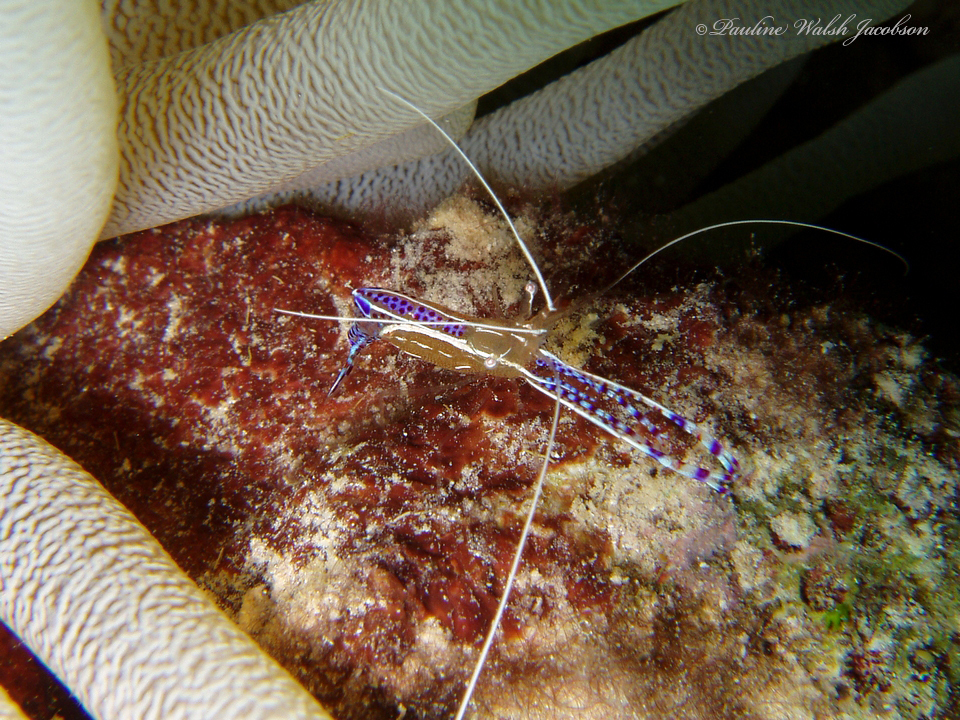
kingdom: Animalia
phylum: Arthropoda
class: Malacostraca
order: Decapoda
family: Palaemonidae
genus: Ancylomenes
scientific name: Ancylomenes pedersoni
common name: Pederson's cleaning shrimp
